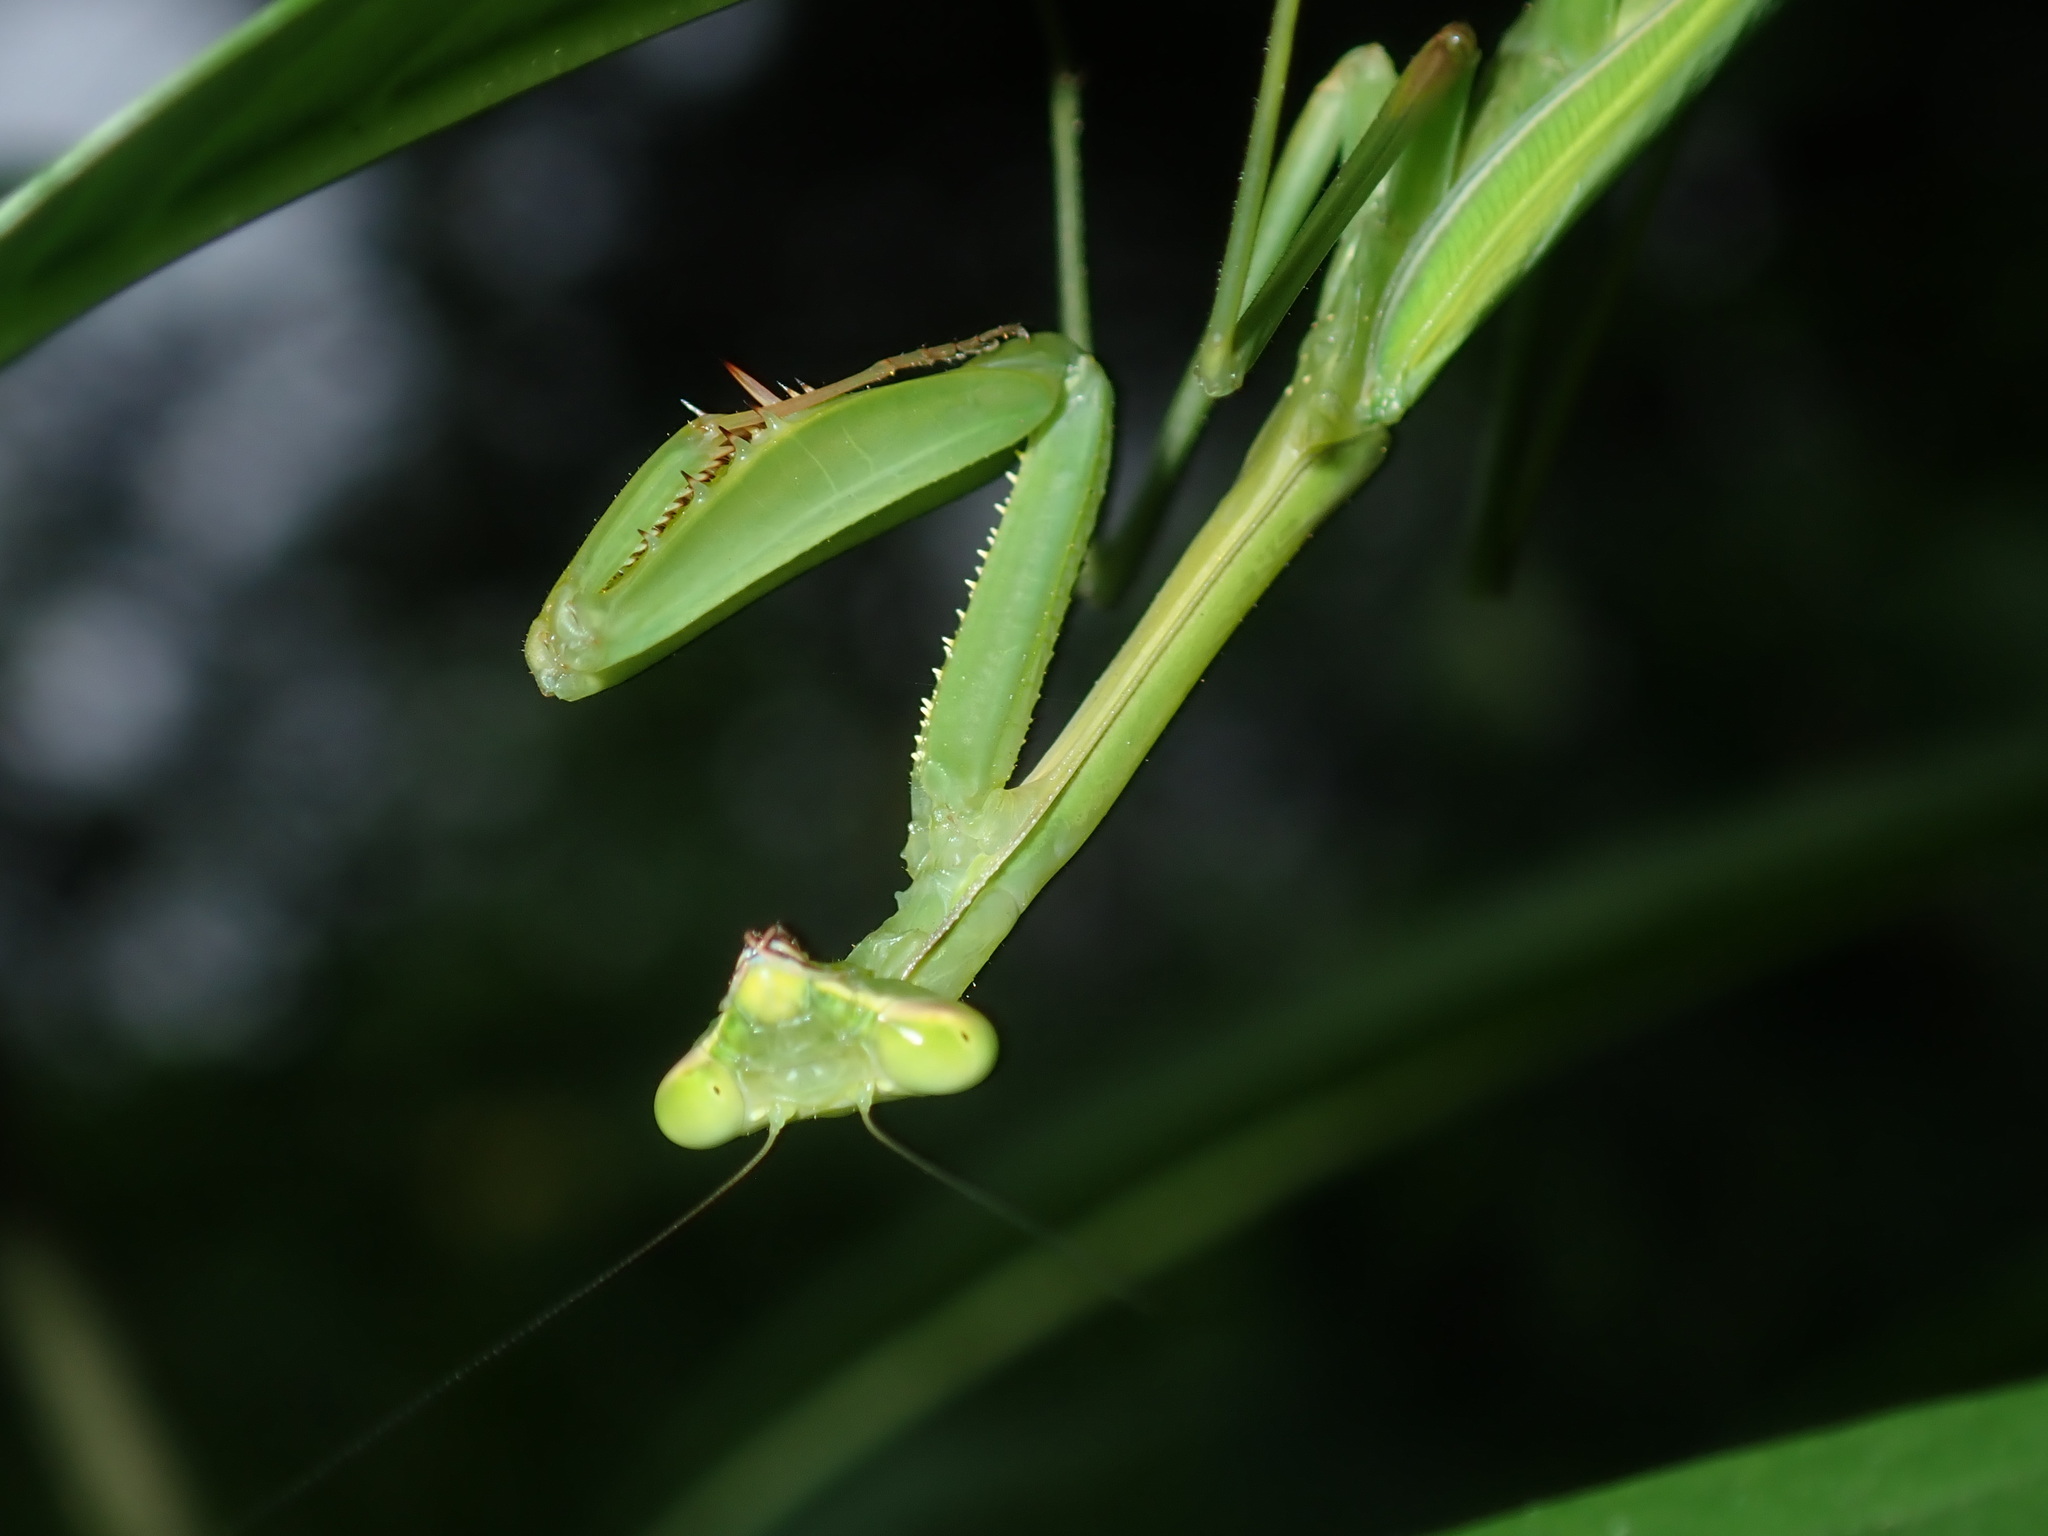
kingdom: Animalia
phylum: Arthropoda
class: Insecta
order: Mantodea
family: Mantidae
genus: Pseudomantis
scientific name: Pseudomantis albofimbriata
